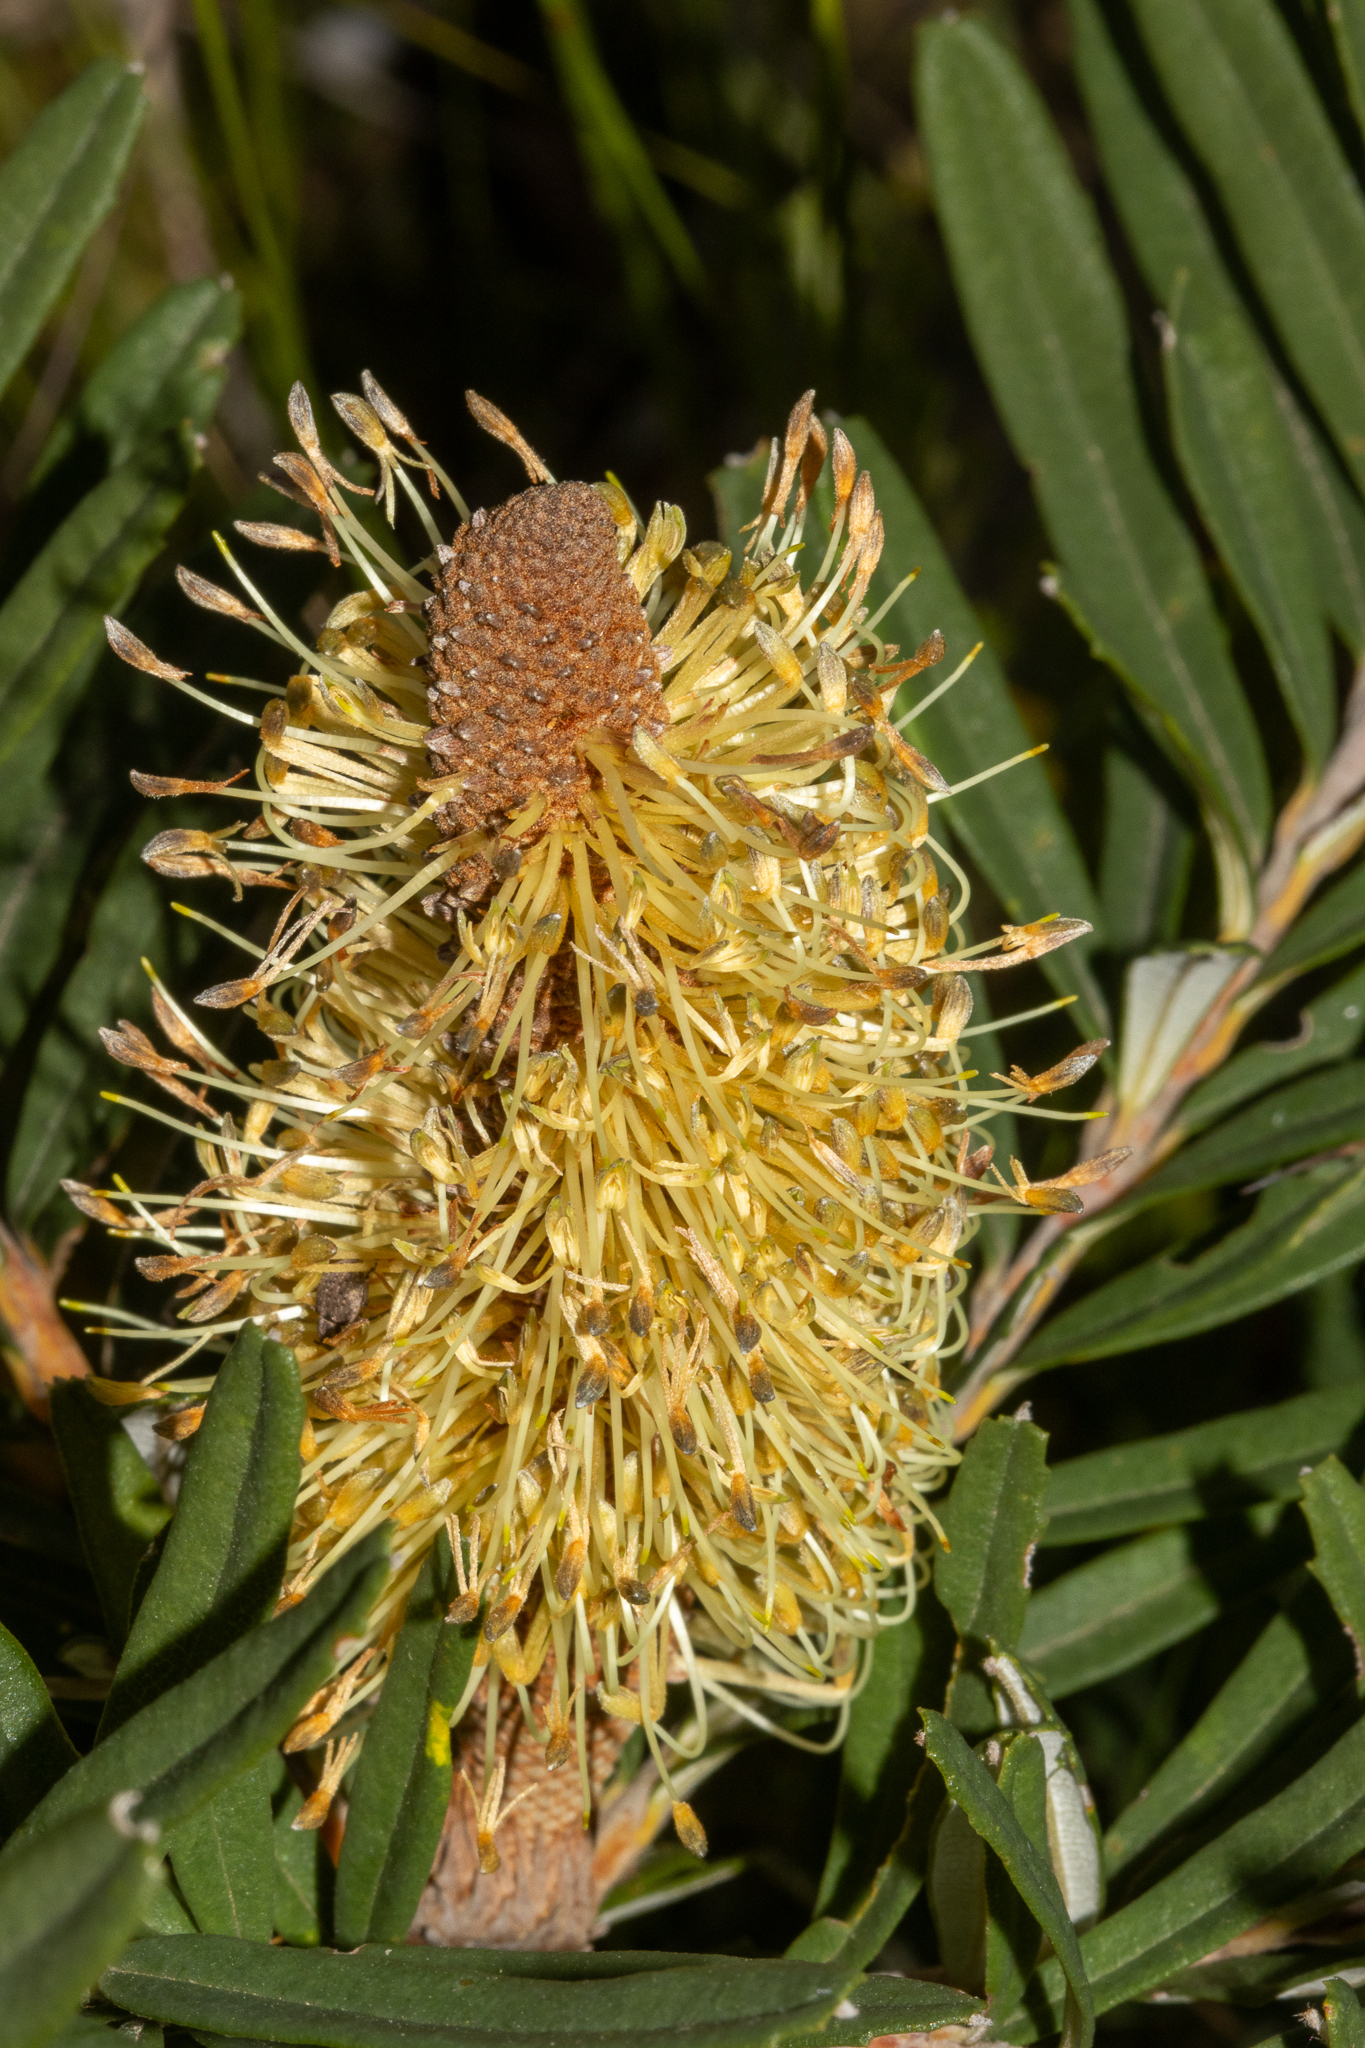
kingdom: Plantae
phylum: Tracheophyta
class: Magnoliopsida
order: Proteales
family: Proteaceae
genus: Banksia
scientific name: Banksia marginata
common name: Silver banksia
